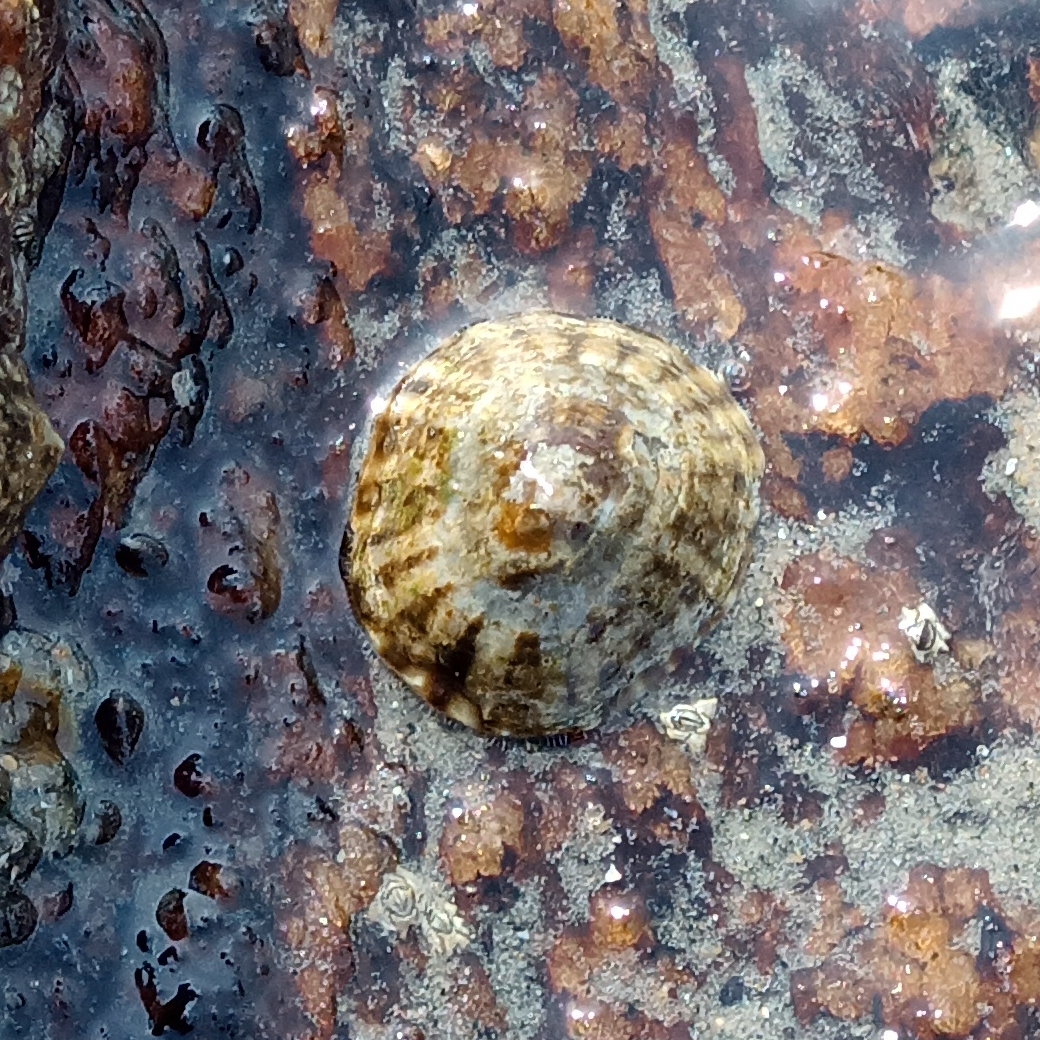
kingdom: Animalia
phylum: Mollusca
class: Gastropoda
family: Lottiidae
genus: Lottia
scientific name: Lottia subrugosa
